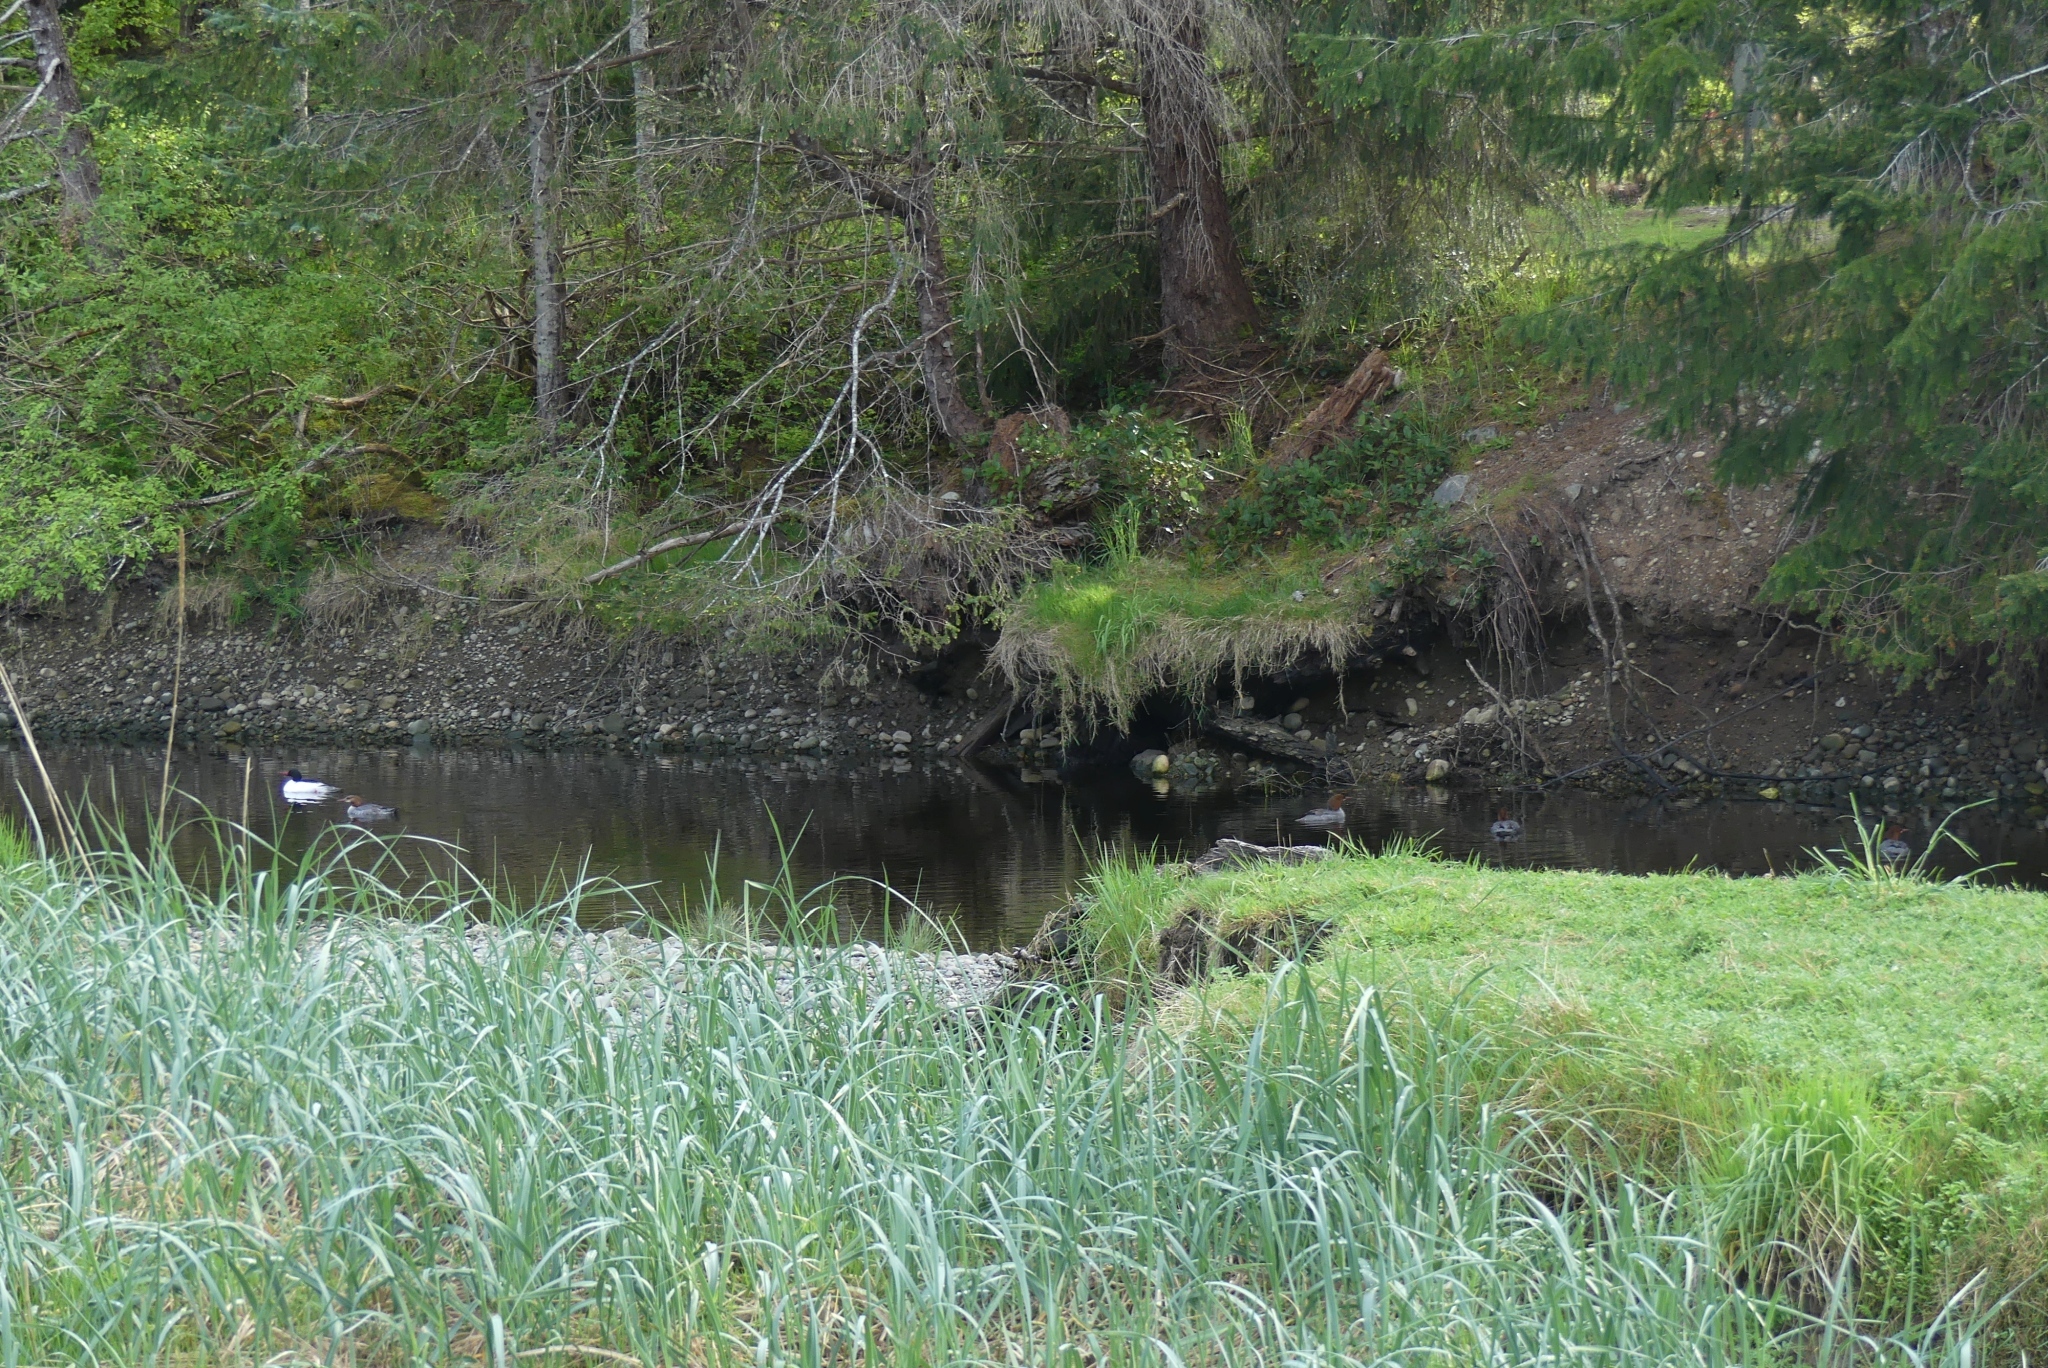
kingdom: Animalia
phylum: Chordata
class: Aves
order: Anseriformes
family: Anatidae
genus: Mergus
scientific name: Mergus merganser
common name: Common merganser
